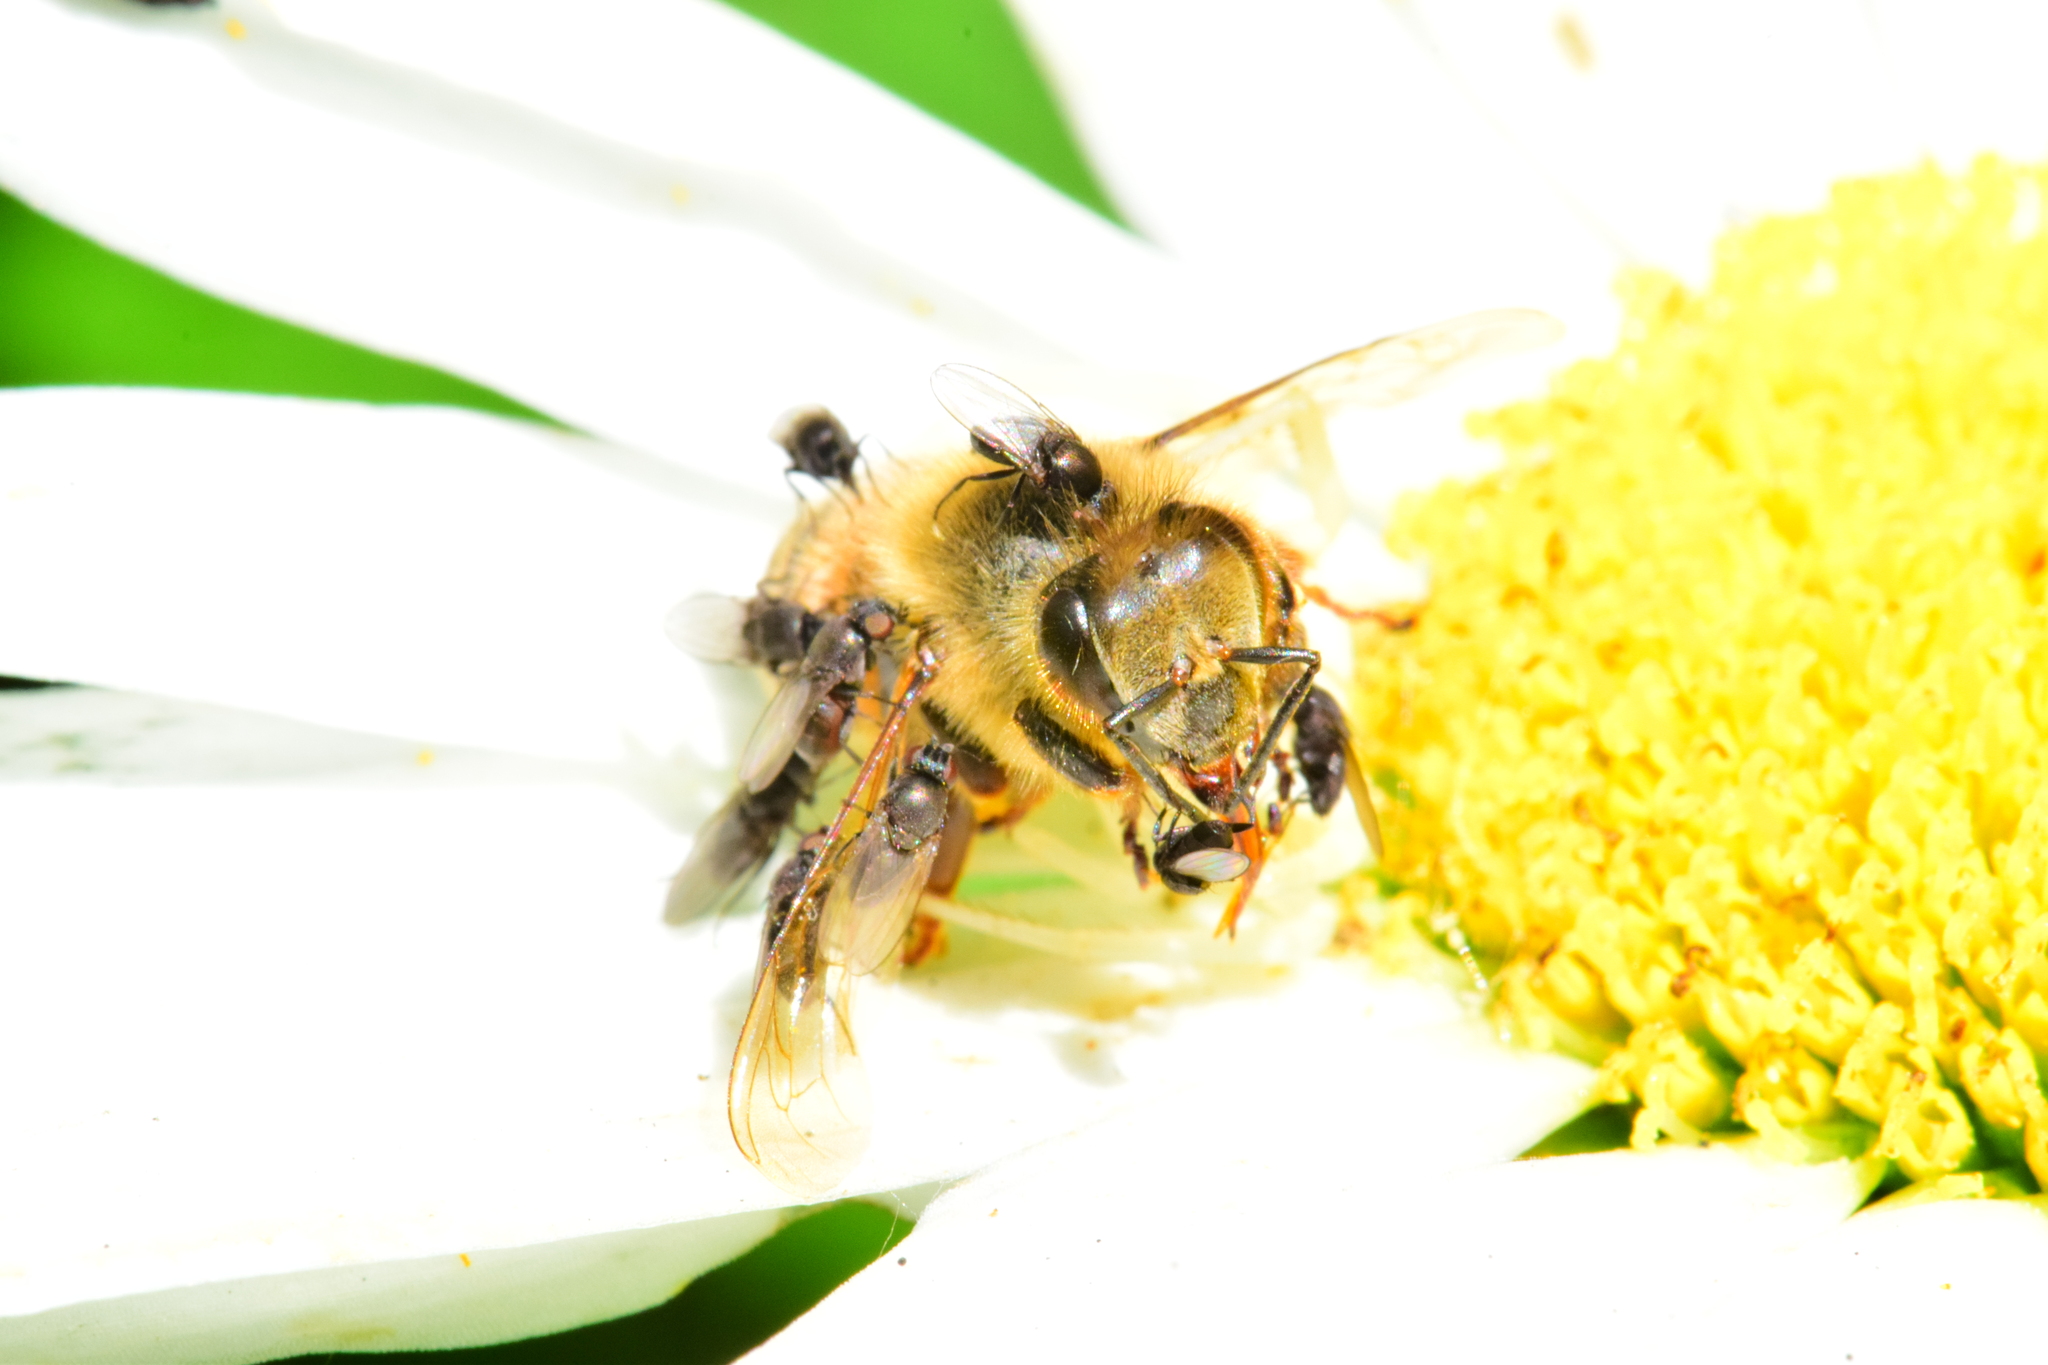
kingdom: Animalia
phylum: Arthropoda
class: Insecta
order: Hymenoptera
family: Apidae
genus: Apis
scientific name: Apis mellifera
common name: Honey bee
